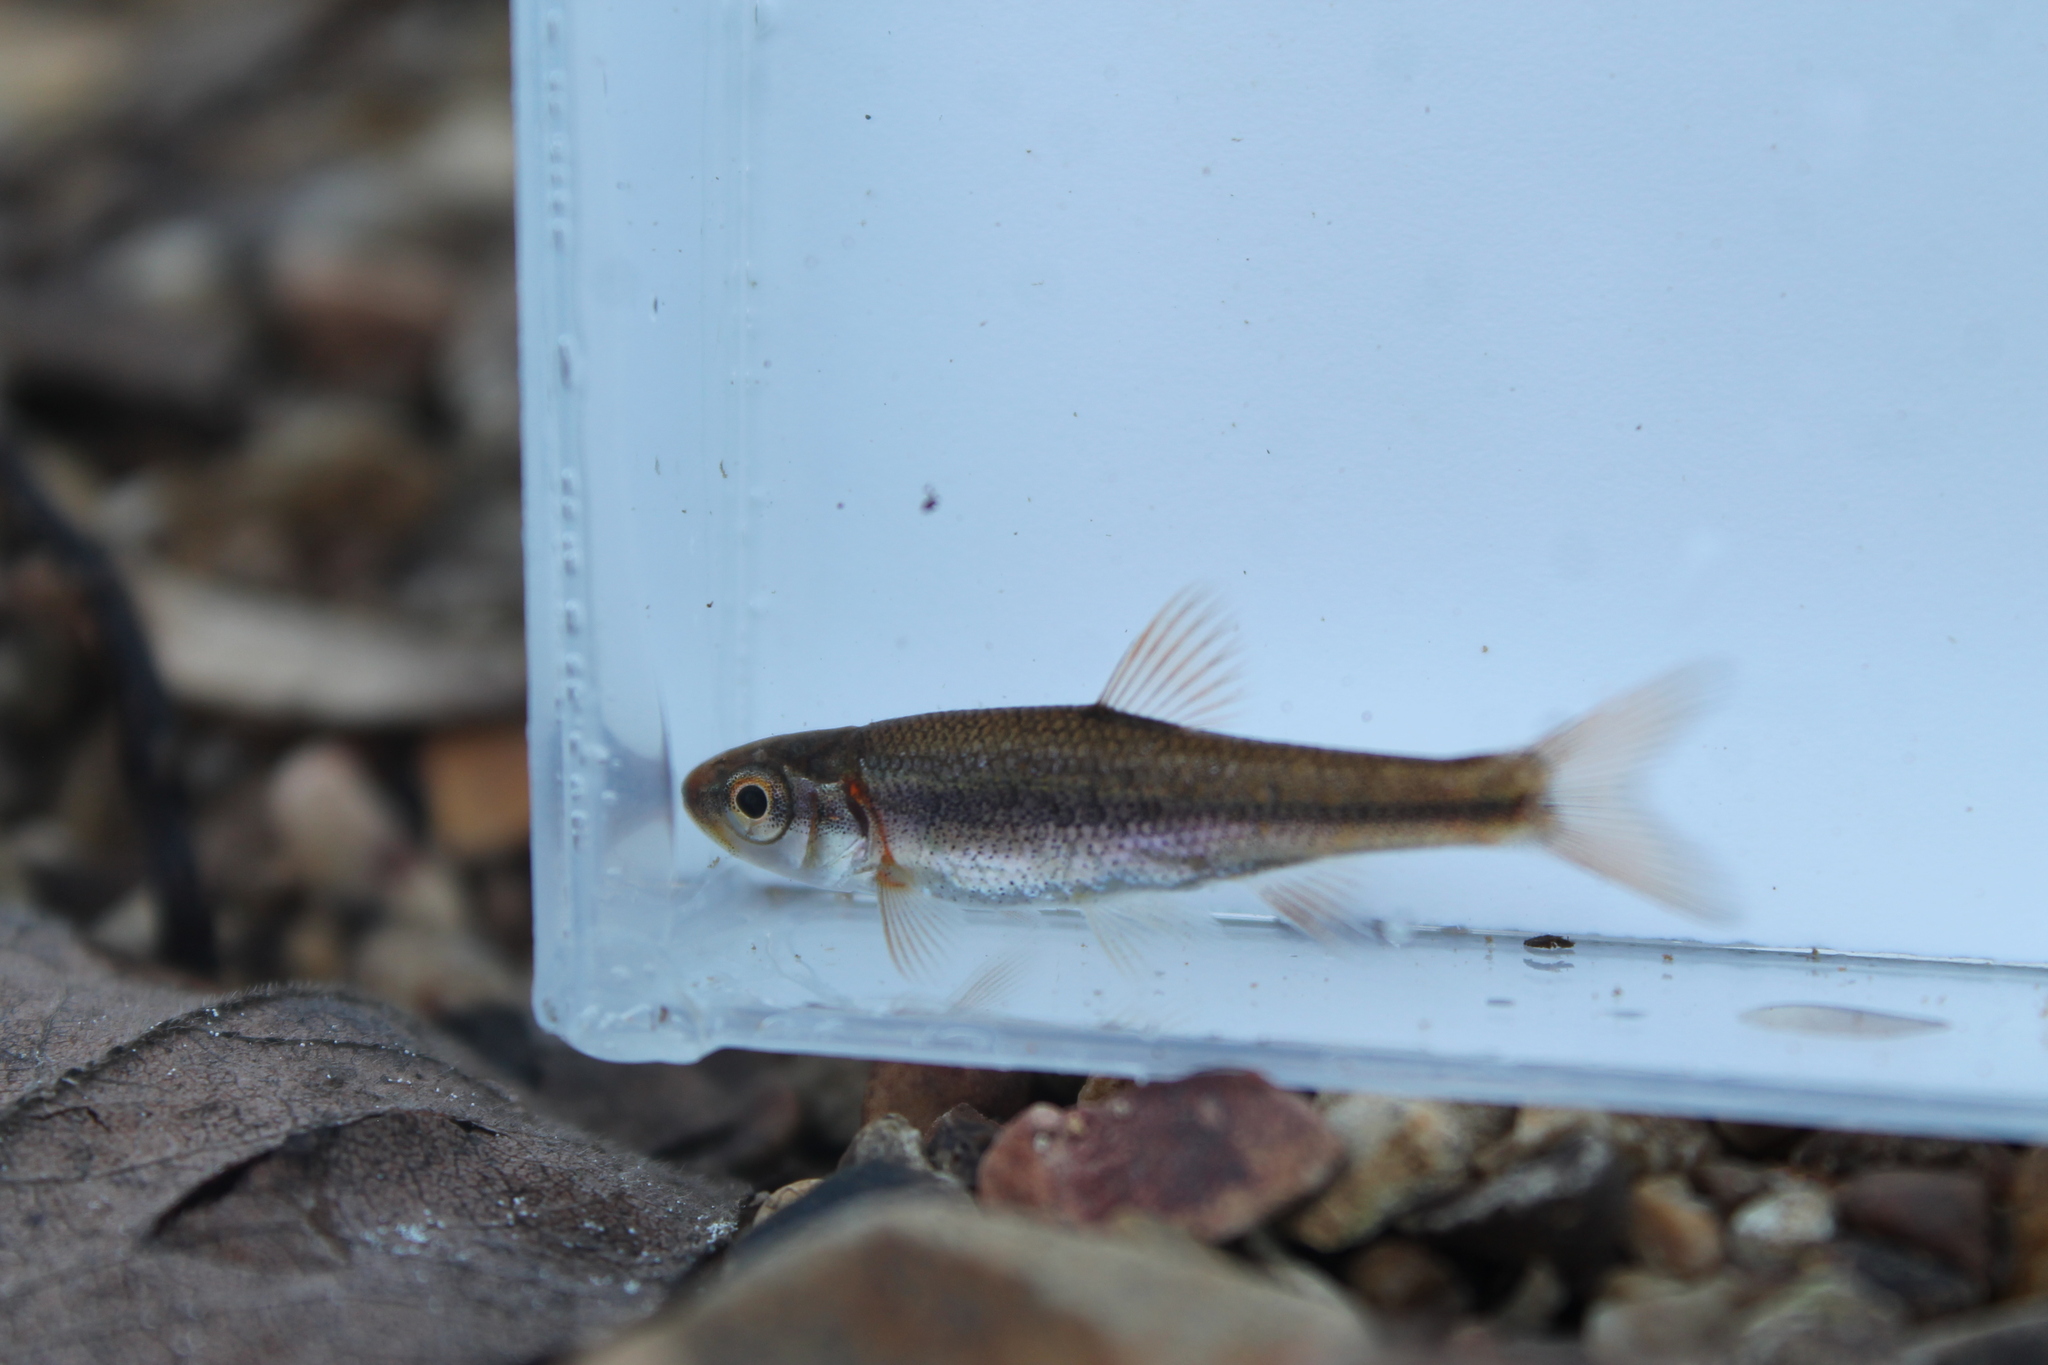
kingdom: Animalia
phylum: Chordata
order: Cypriniformes
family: Cyprinidae
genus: Clinostomus
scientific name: Clinostomus funduloides
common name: Rosyside dace
